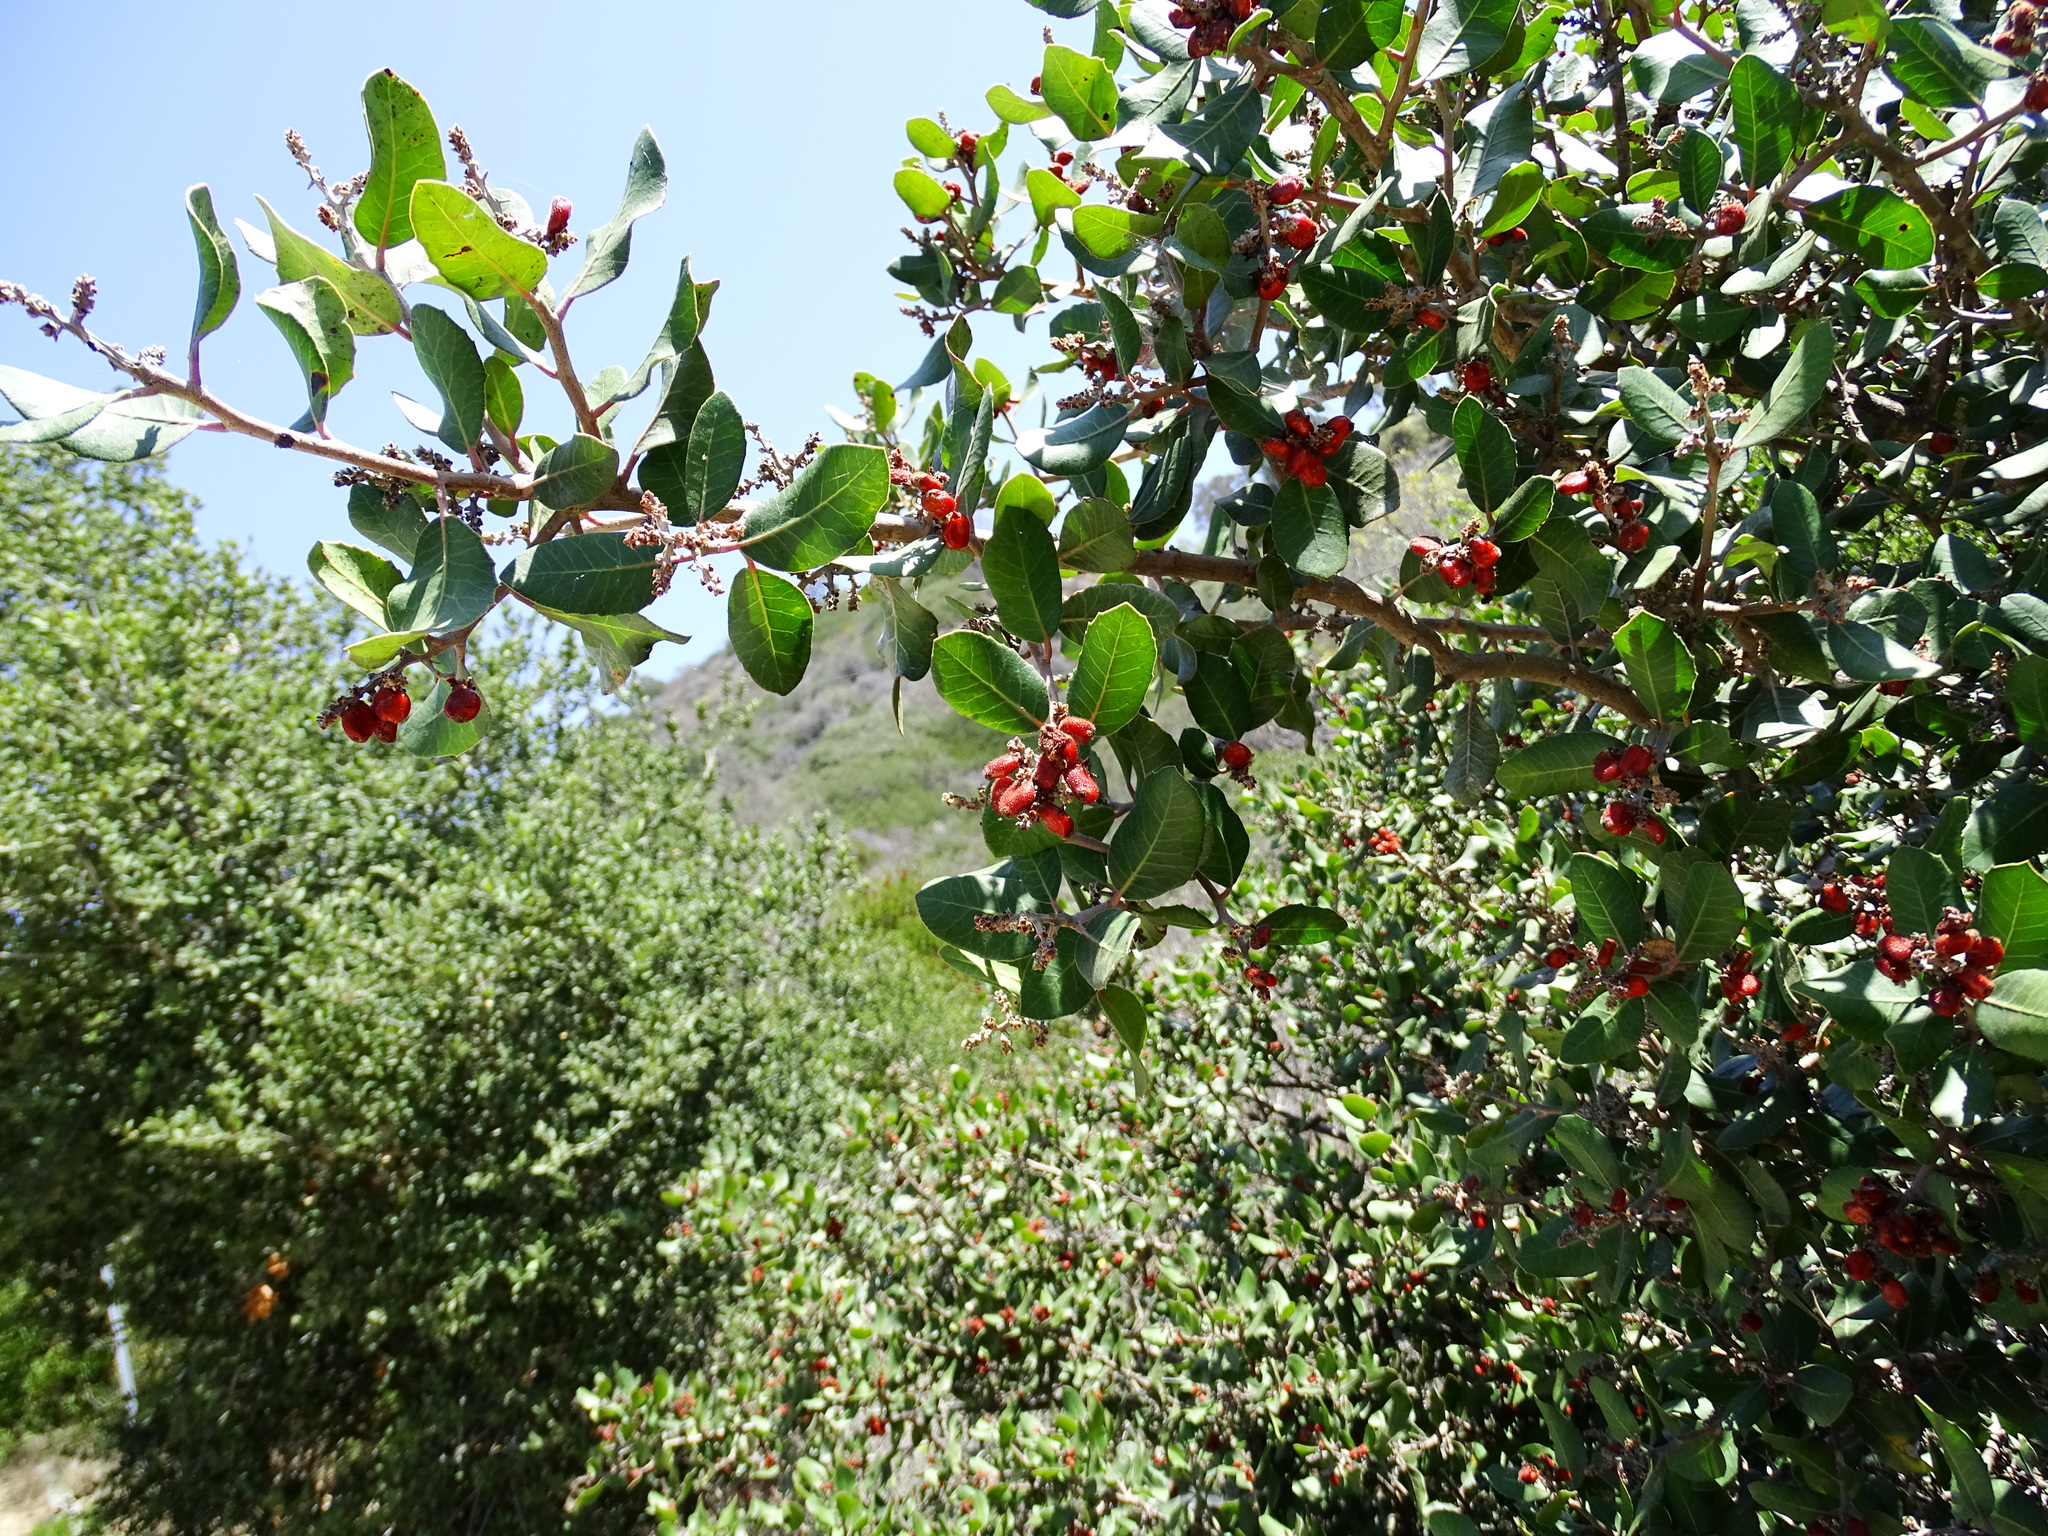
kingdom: Plantae
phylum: Tracheophyta
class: Magnoliopsida
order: Sapindales
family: Anacardiaceae
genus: Rhus
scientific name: Rhus integrifolia
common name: Lemonade sumac
